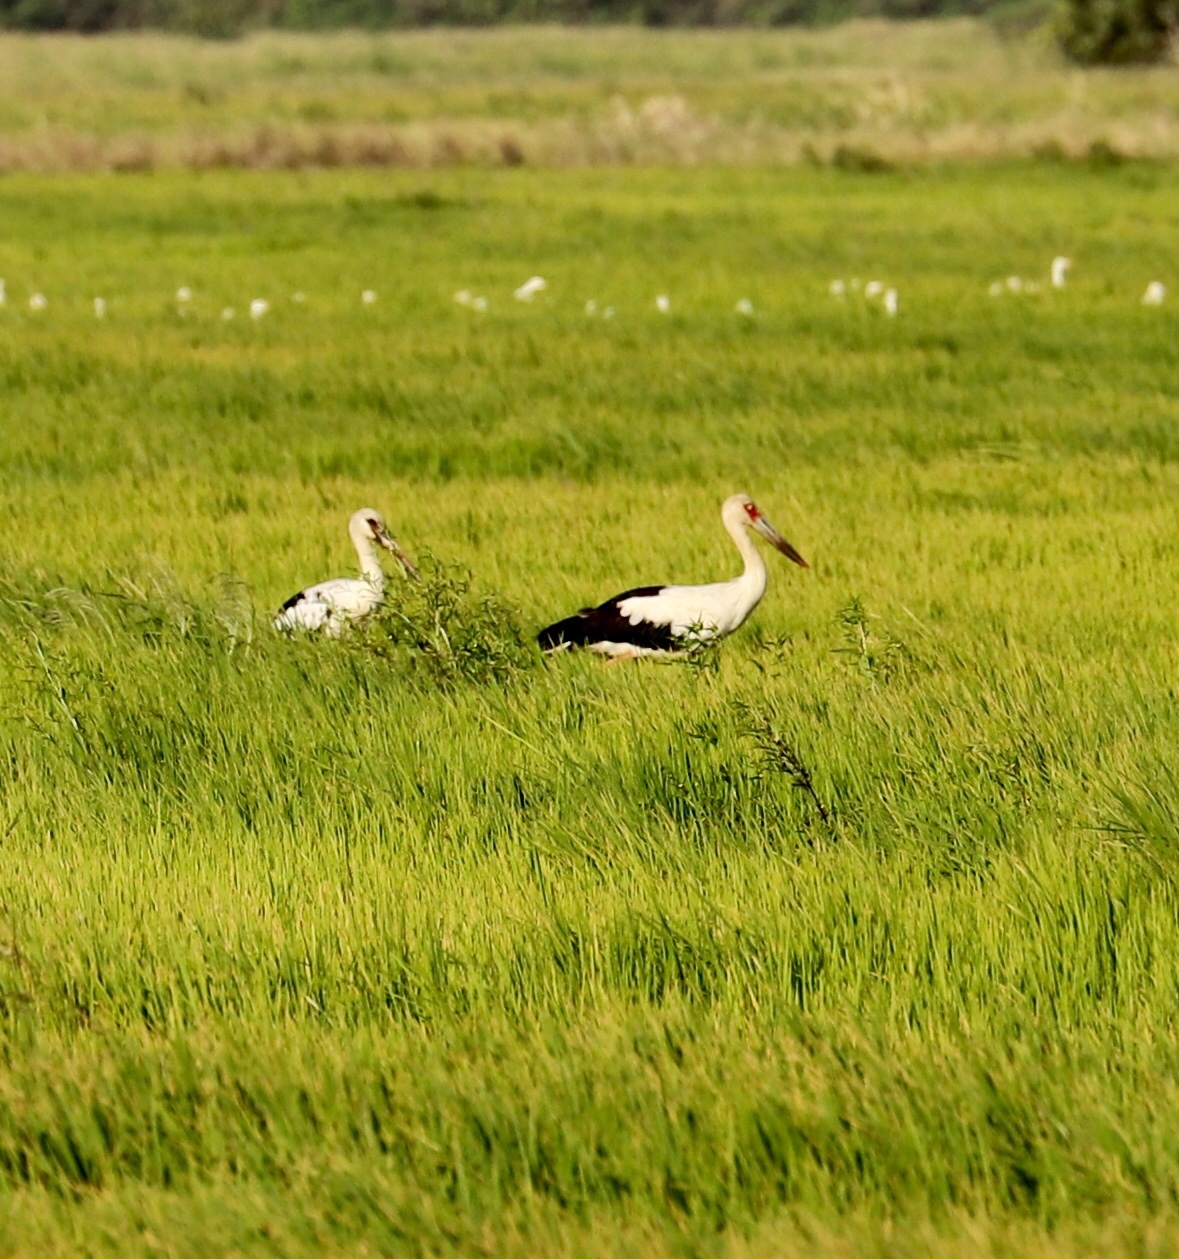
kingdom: Animalia
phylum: Chordata
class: Aves
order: Ciconiiformes
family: Ciconiidae
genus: Ciconia
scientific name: Ciconia maguari
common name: Maguari stork
